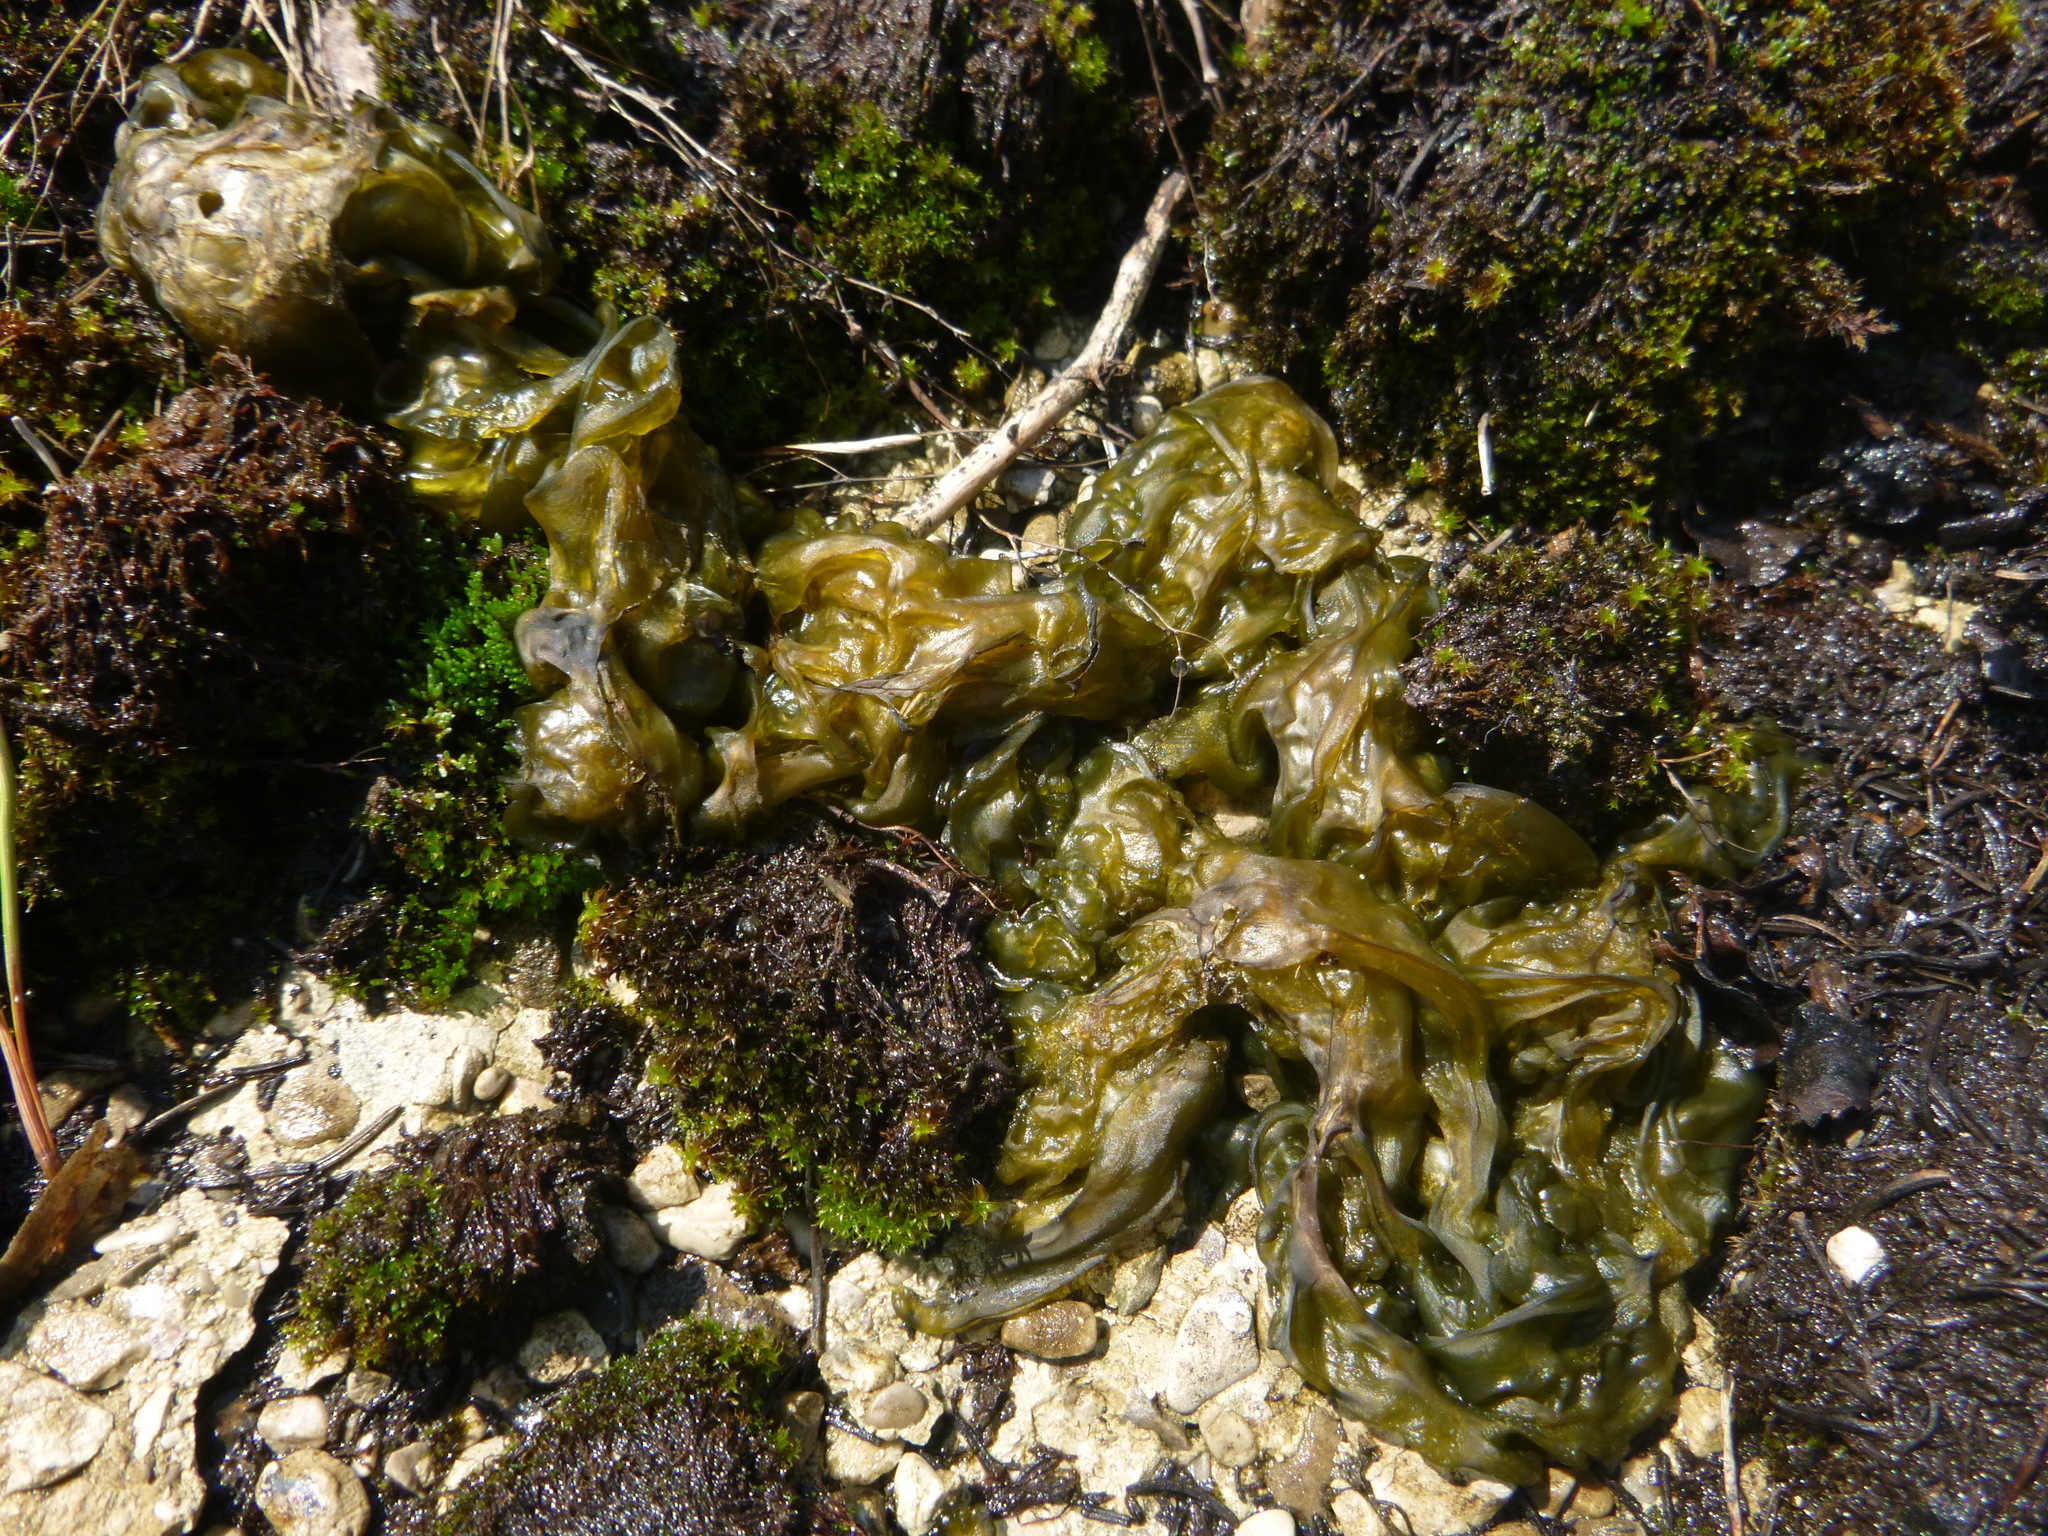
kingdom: Bacteria
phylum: Cyanobacteria
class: Cyanobacteriia
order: Cyanobacteriales
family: Nostocaceae
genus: Nostoc
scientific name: Nostoc commune
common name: Star jelly
